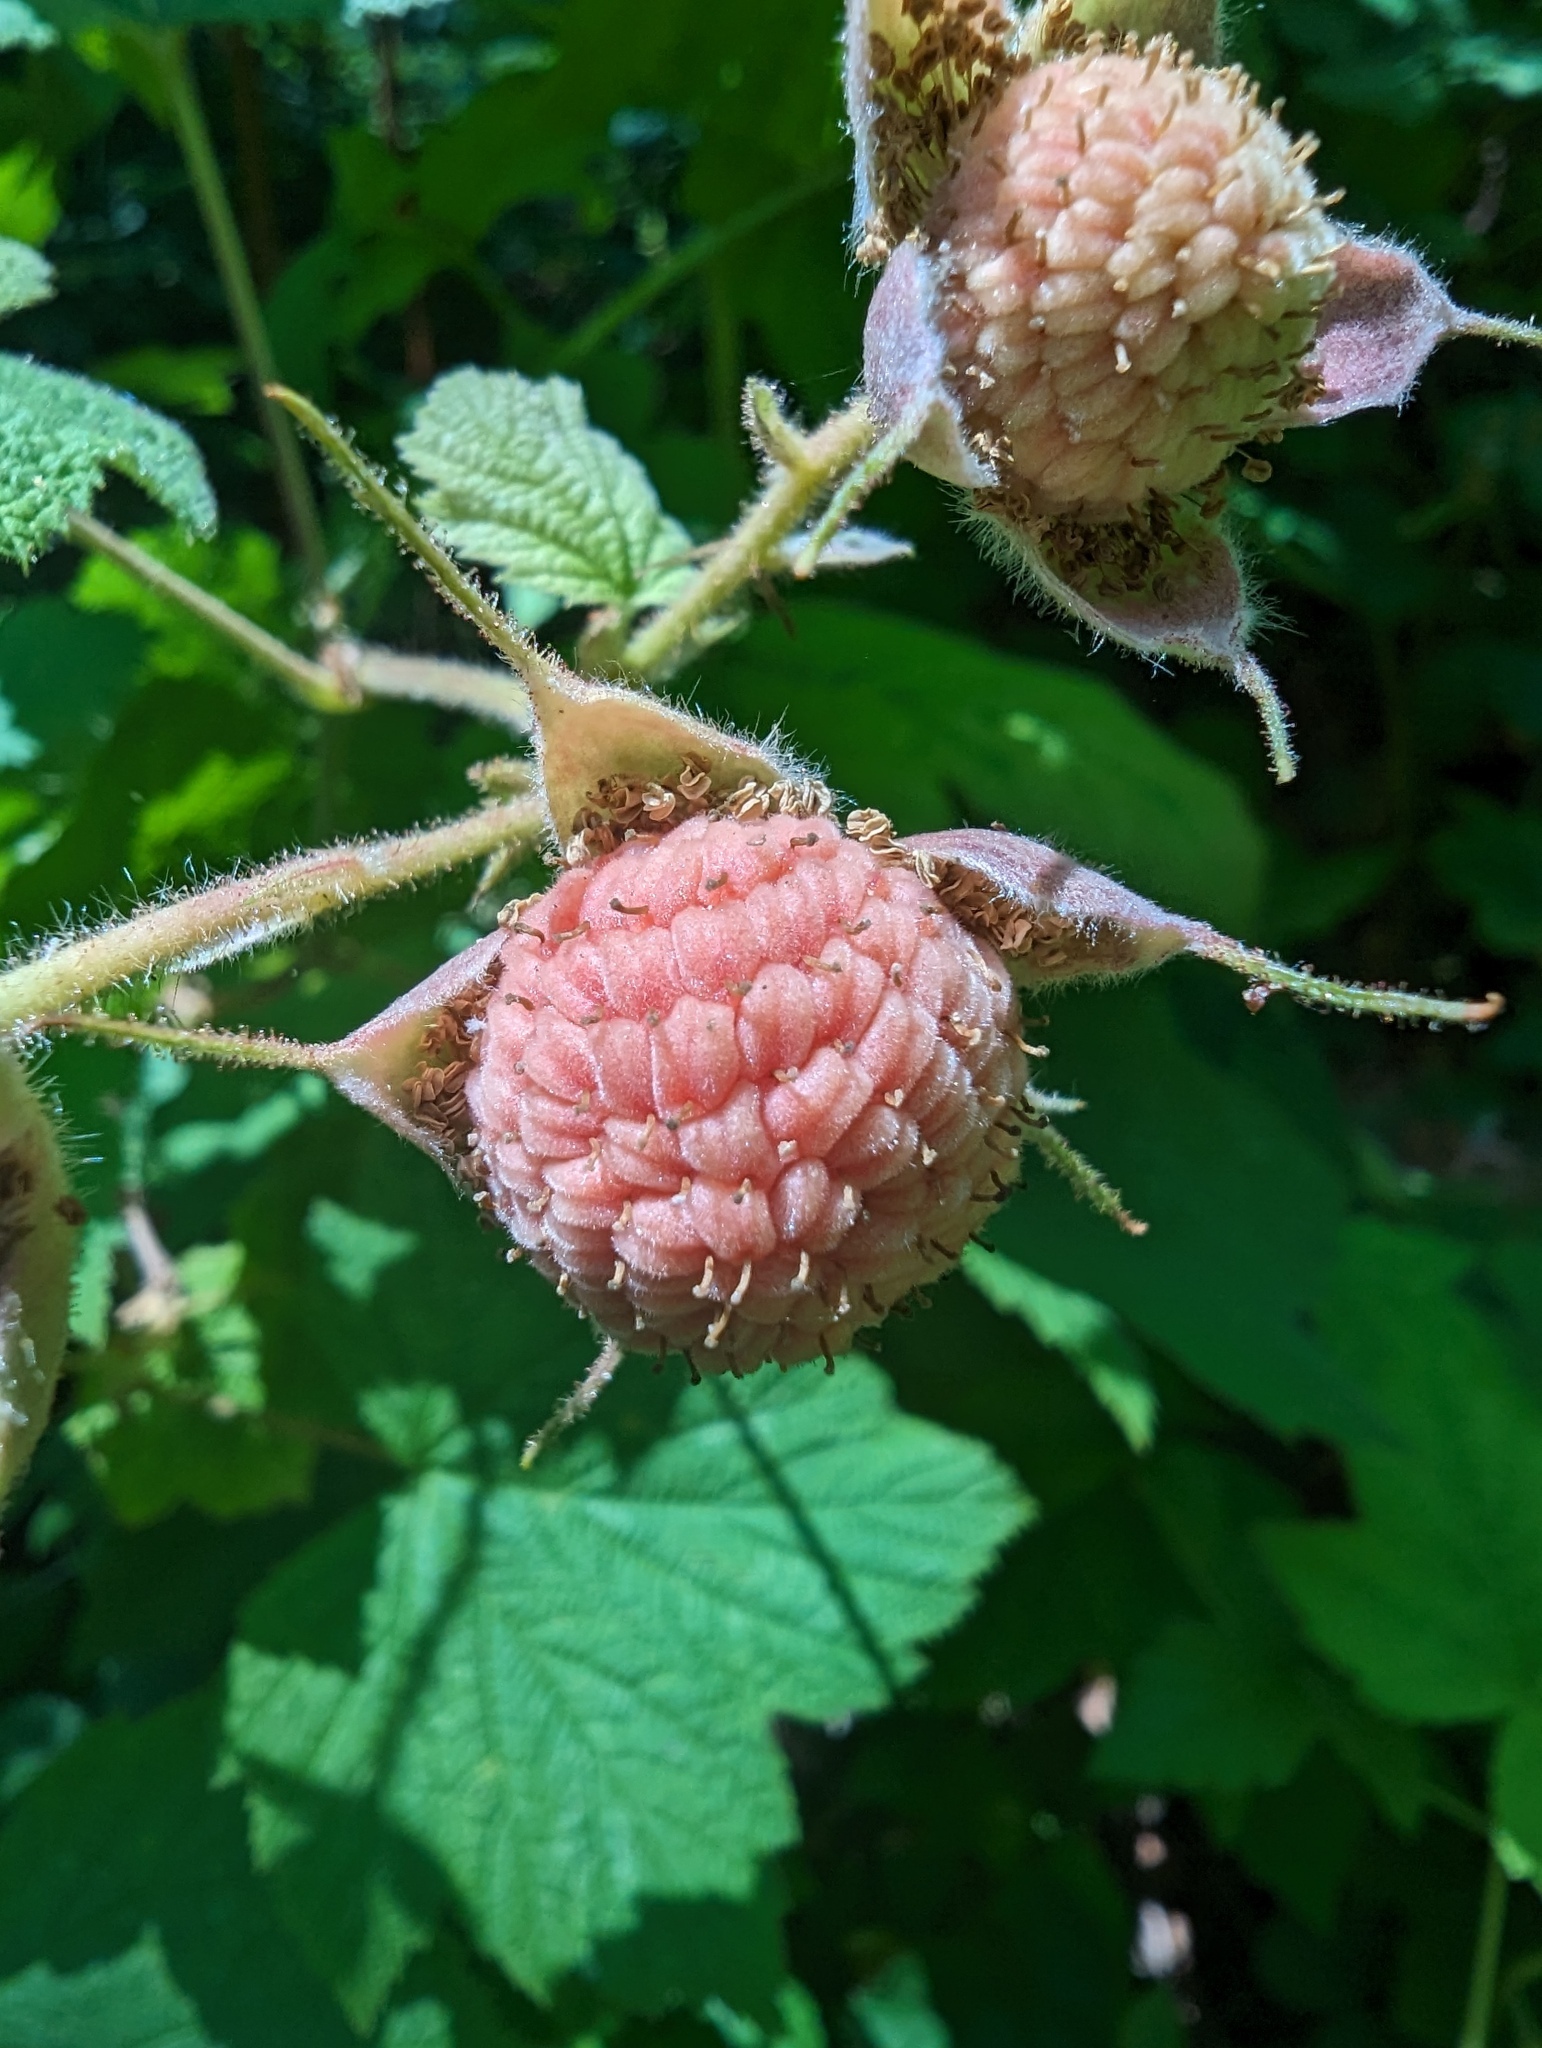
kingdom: Plantae
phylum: Tracheophyta
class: Magnoliopsida
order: Rosales
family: Rosaceae
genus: Rubus
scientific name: Rubus parviflorus
